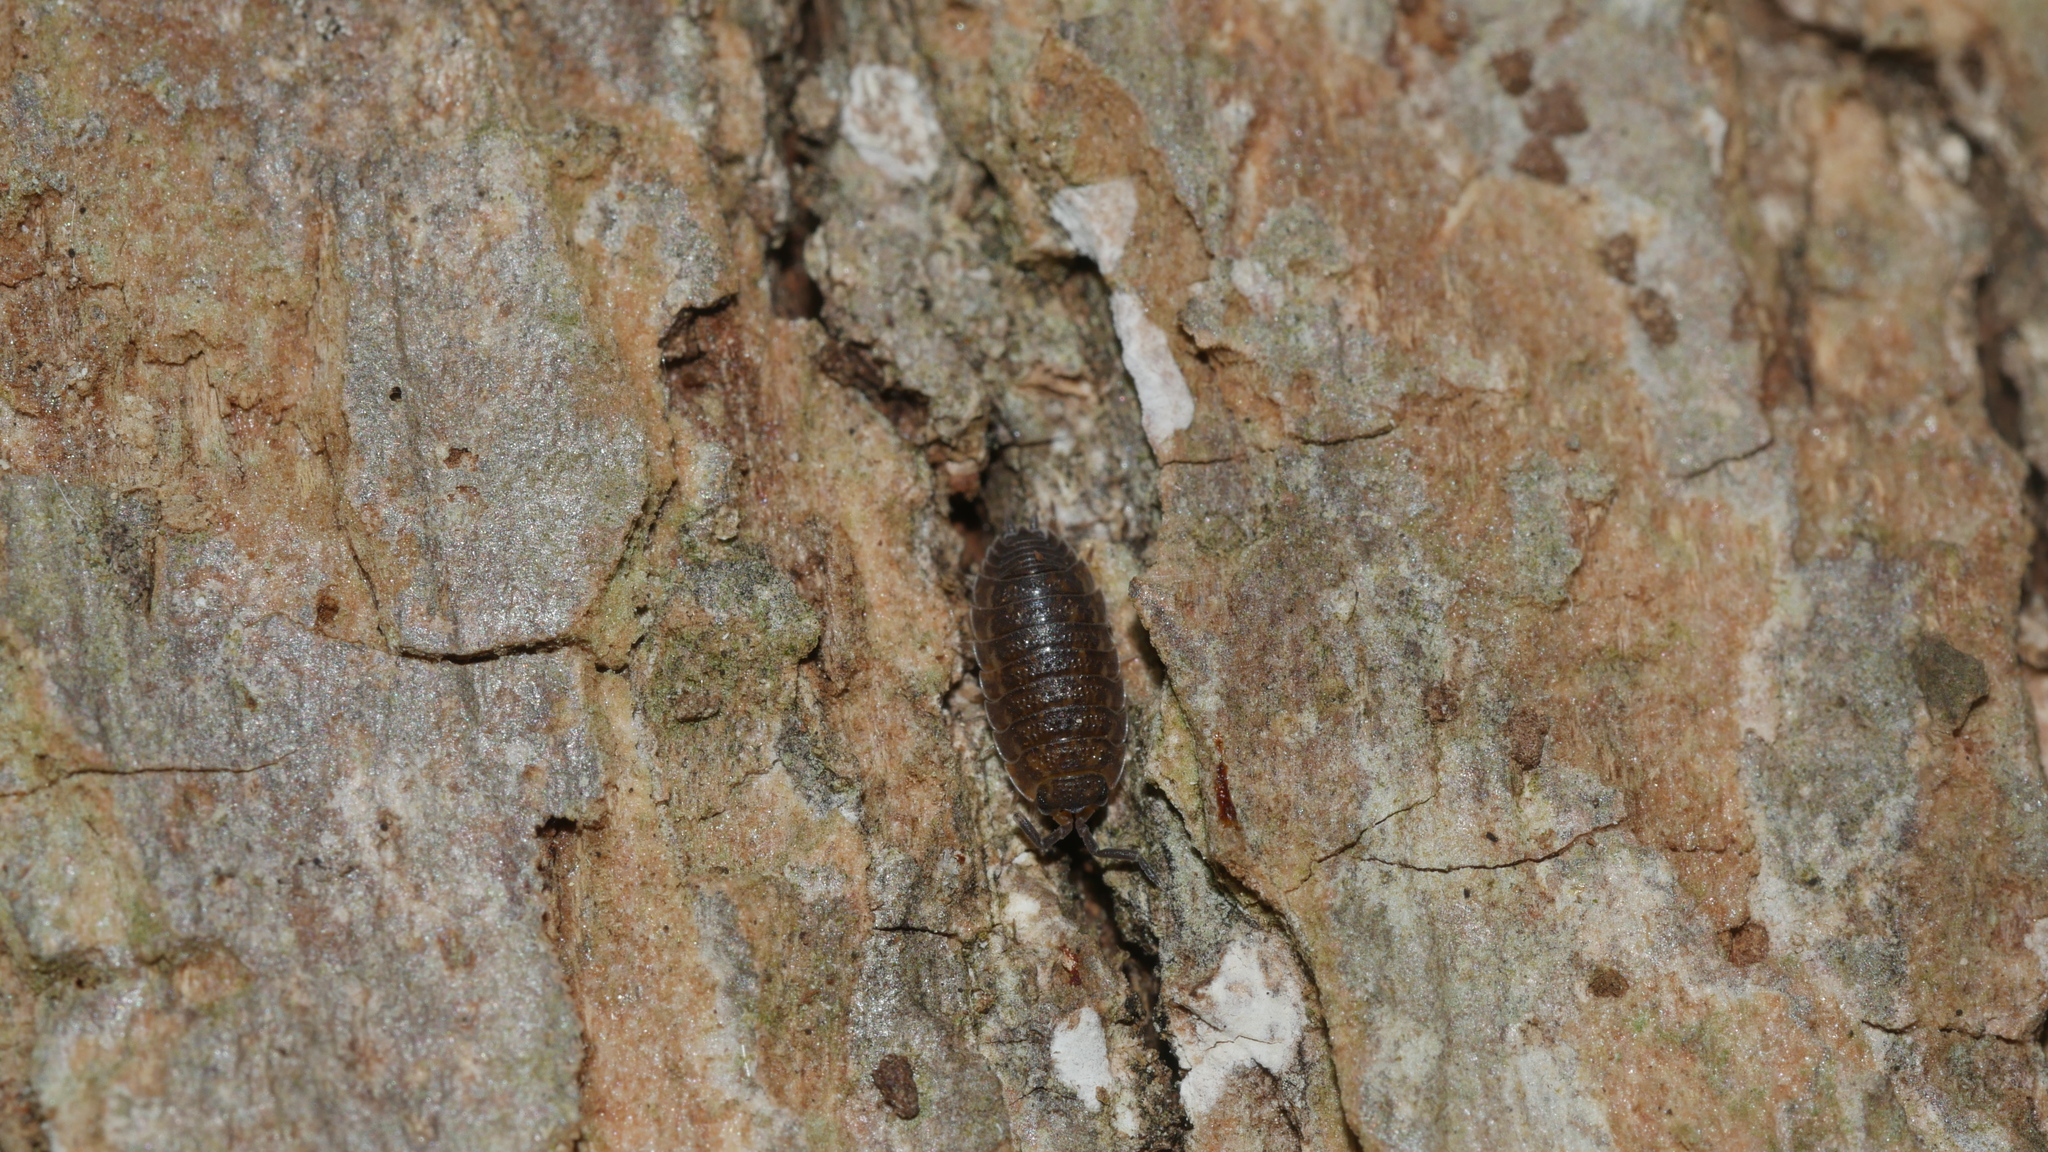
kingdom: Animalia
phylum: Arthropoda
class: Malacostraca
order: Isopoda
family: Porcellionidae
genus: Porcellio
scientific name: Porcellio scaber
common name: Common rough woodlouse
